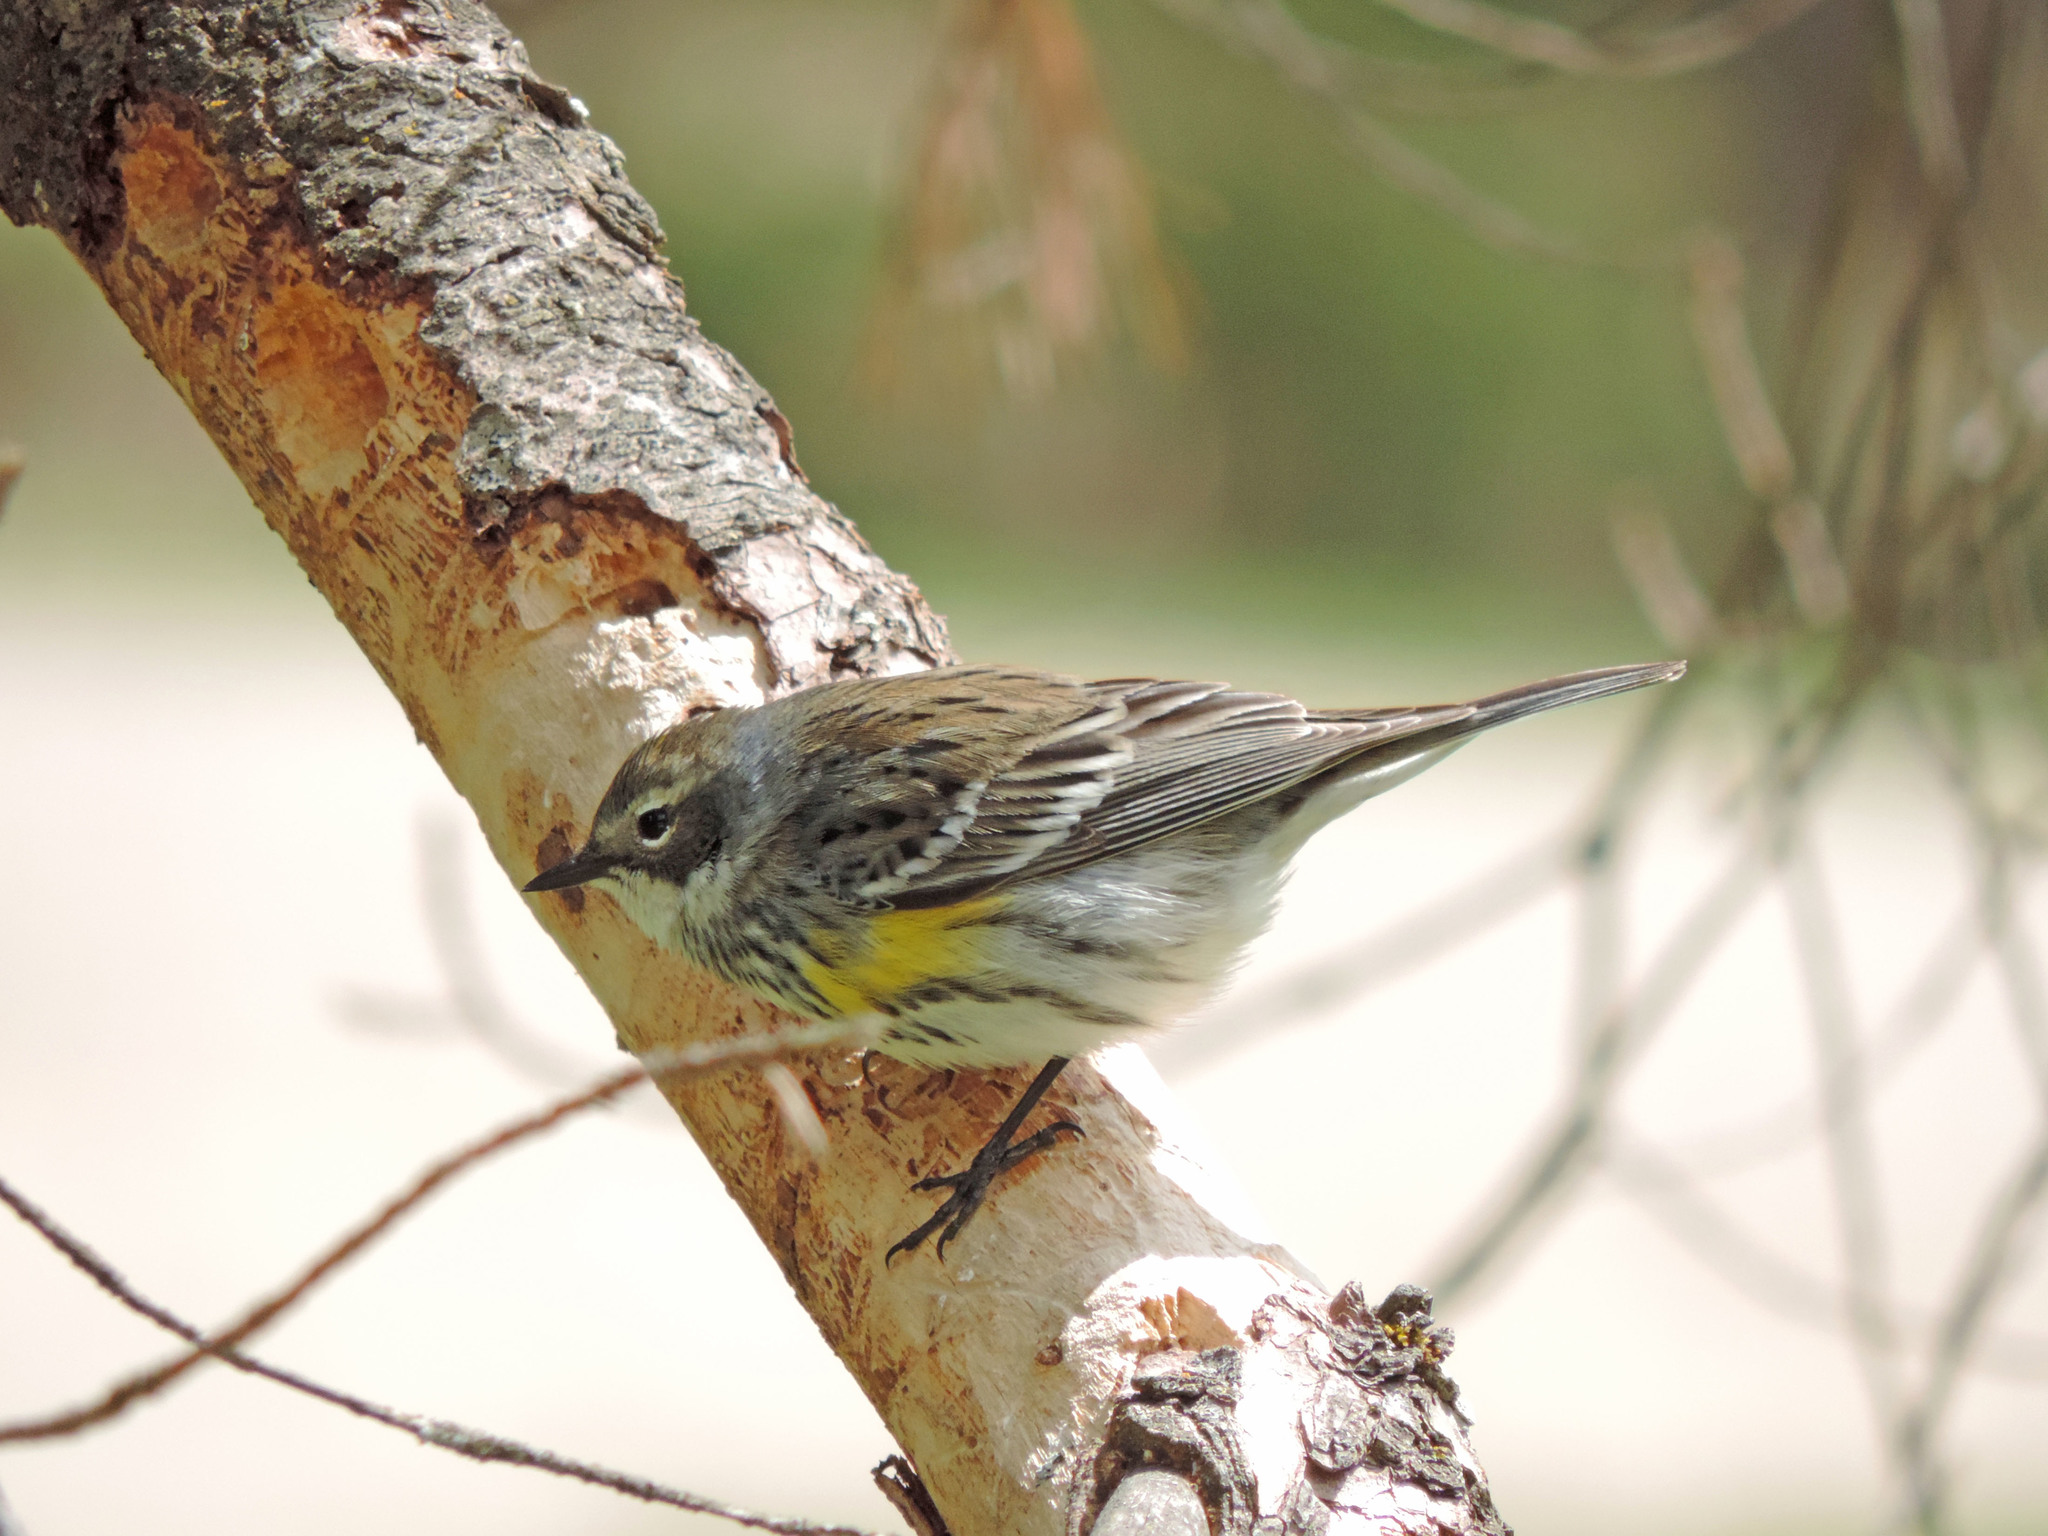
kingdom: Animalia
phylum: Chordata
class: Aves
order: Passeriformes
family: Parulidae
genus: Setophaga
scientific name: Setophaga coronata
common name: Myrtle warbler
